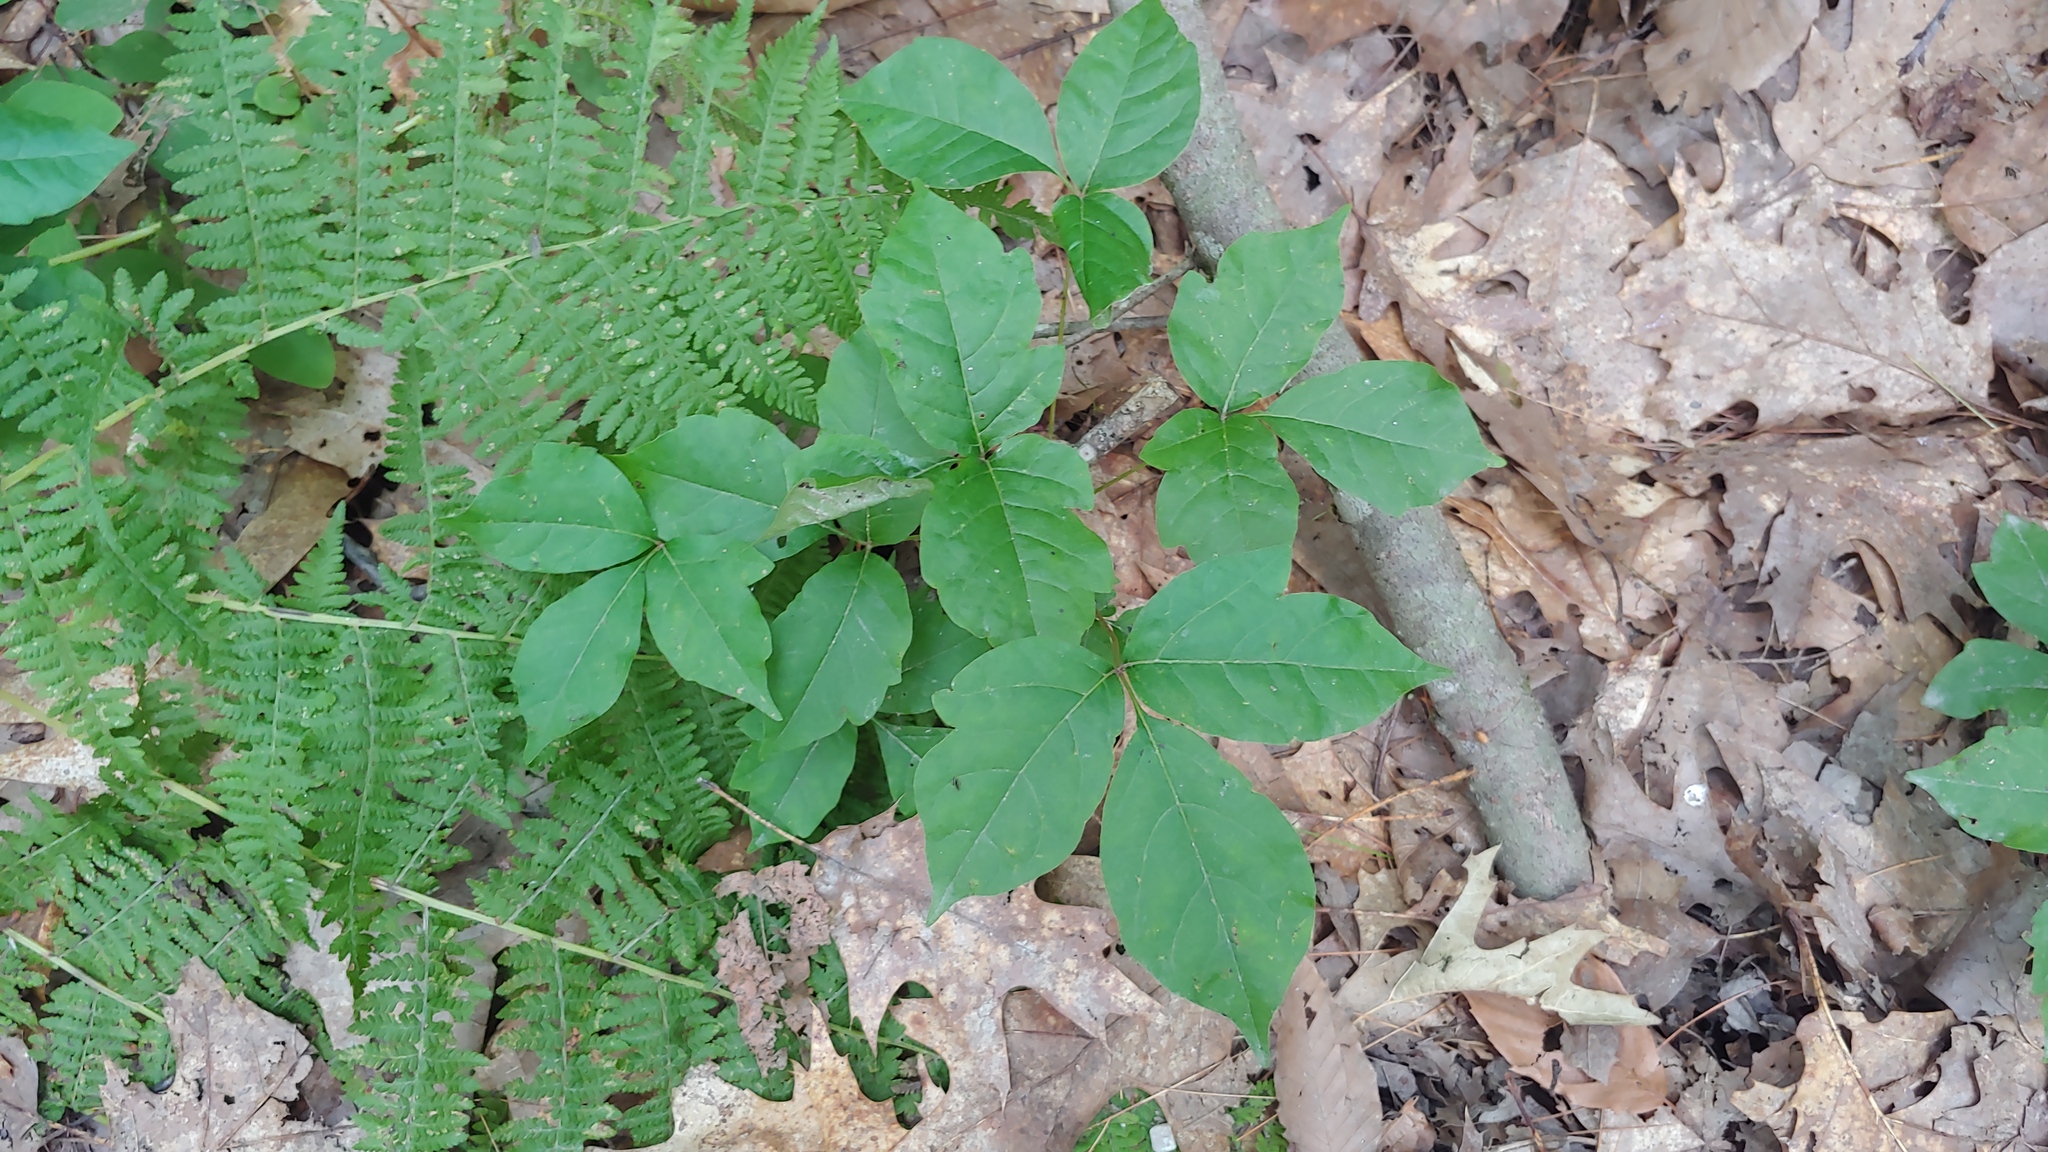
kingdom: Plantae
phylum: Tracheophyta
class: Magnoliopsida
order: Sapindales
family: Anacardiaceae
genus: Toxicodendron
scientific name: Toxicodendron radicans
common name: Poison ivy
